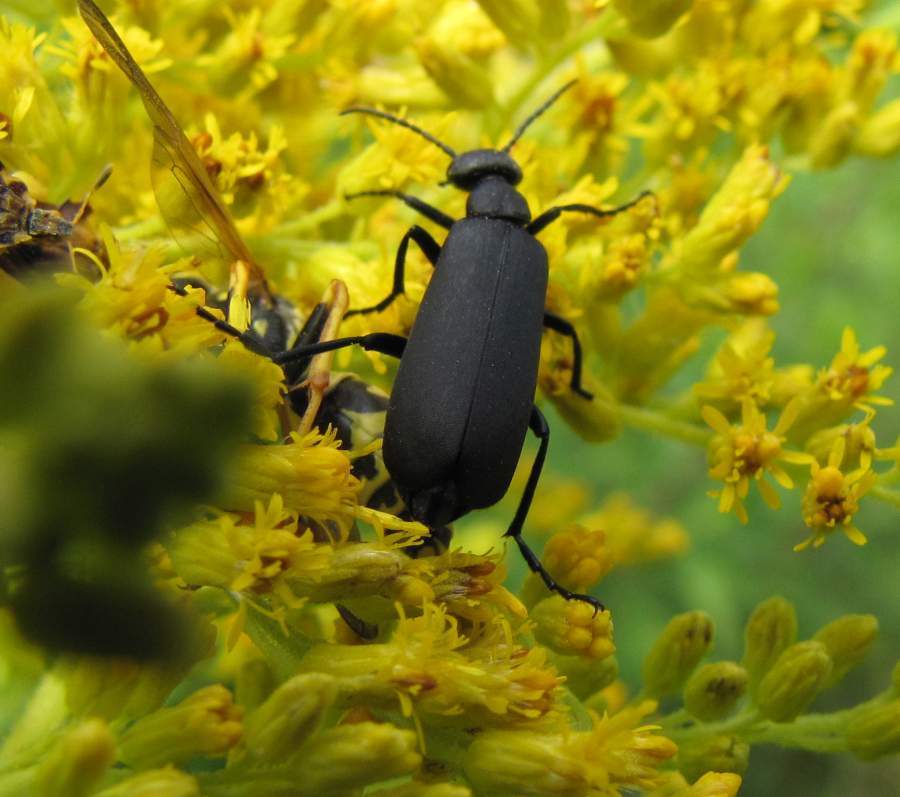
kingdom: Animalia
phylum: Arthropoda
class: Insecta
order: Coleoptera
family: Meloidae
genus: Epicauta
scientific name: Epicauta pensylvanica
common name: Black blister beetle
